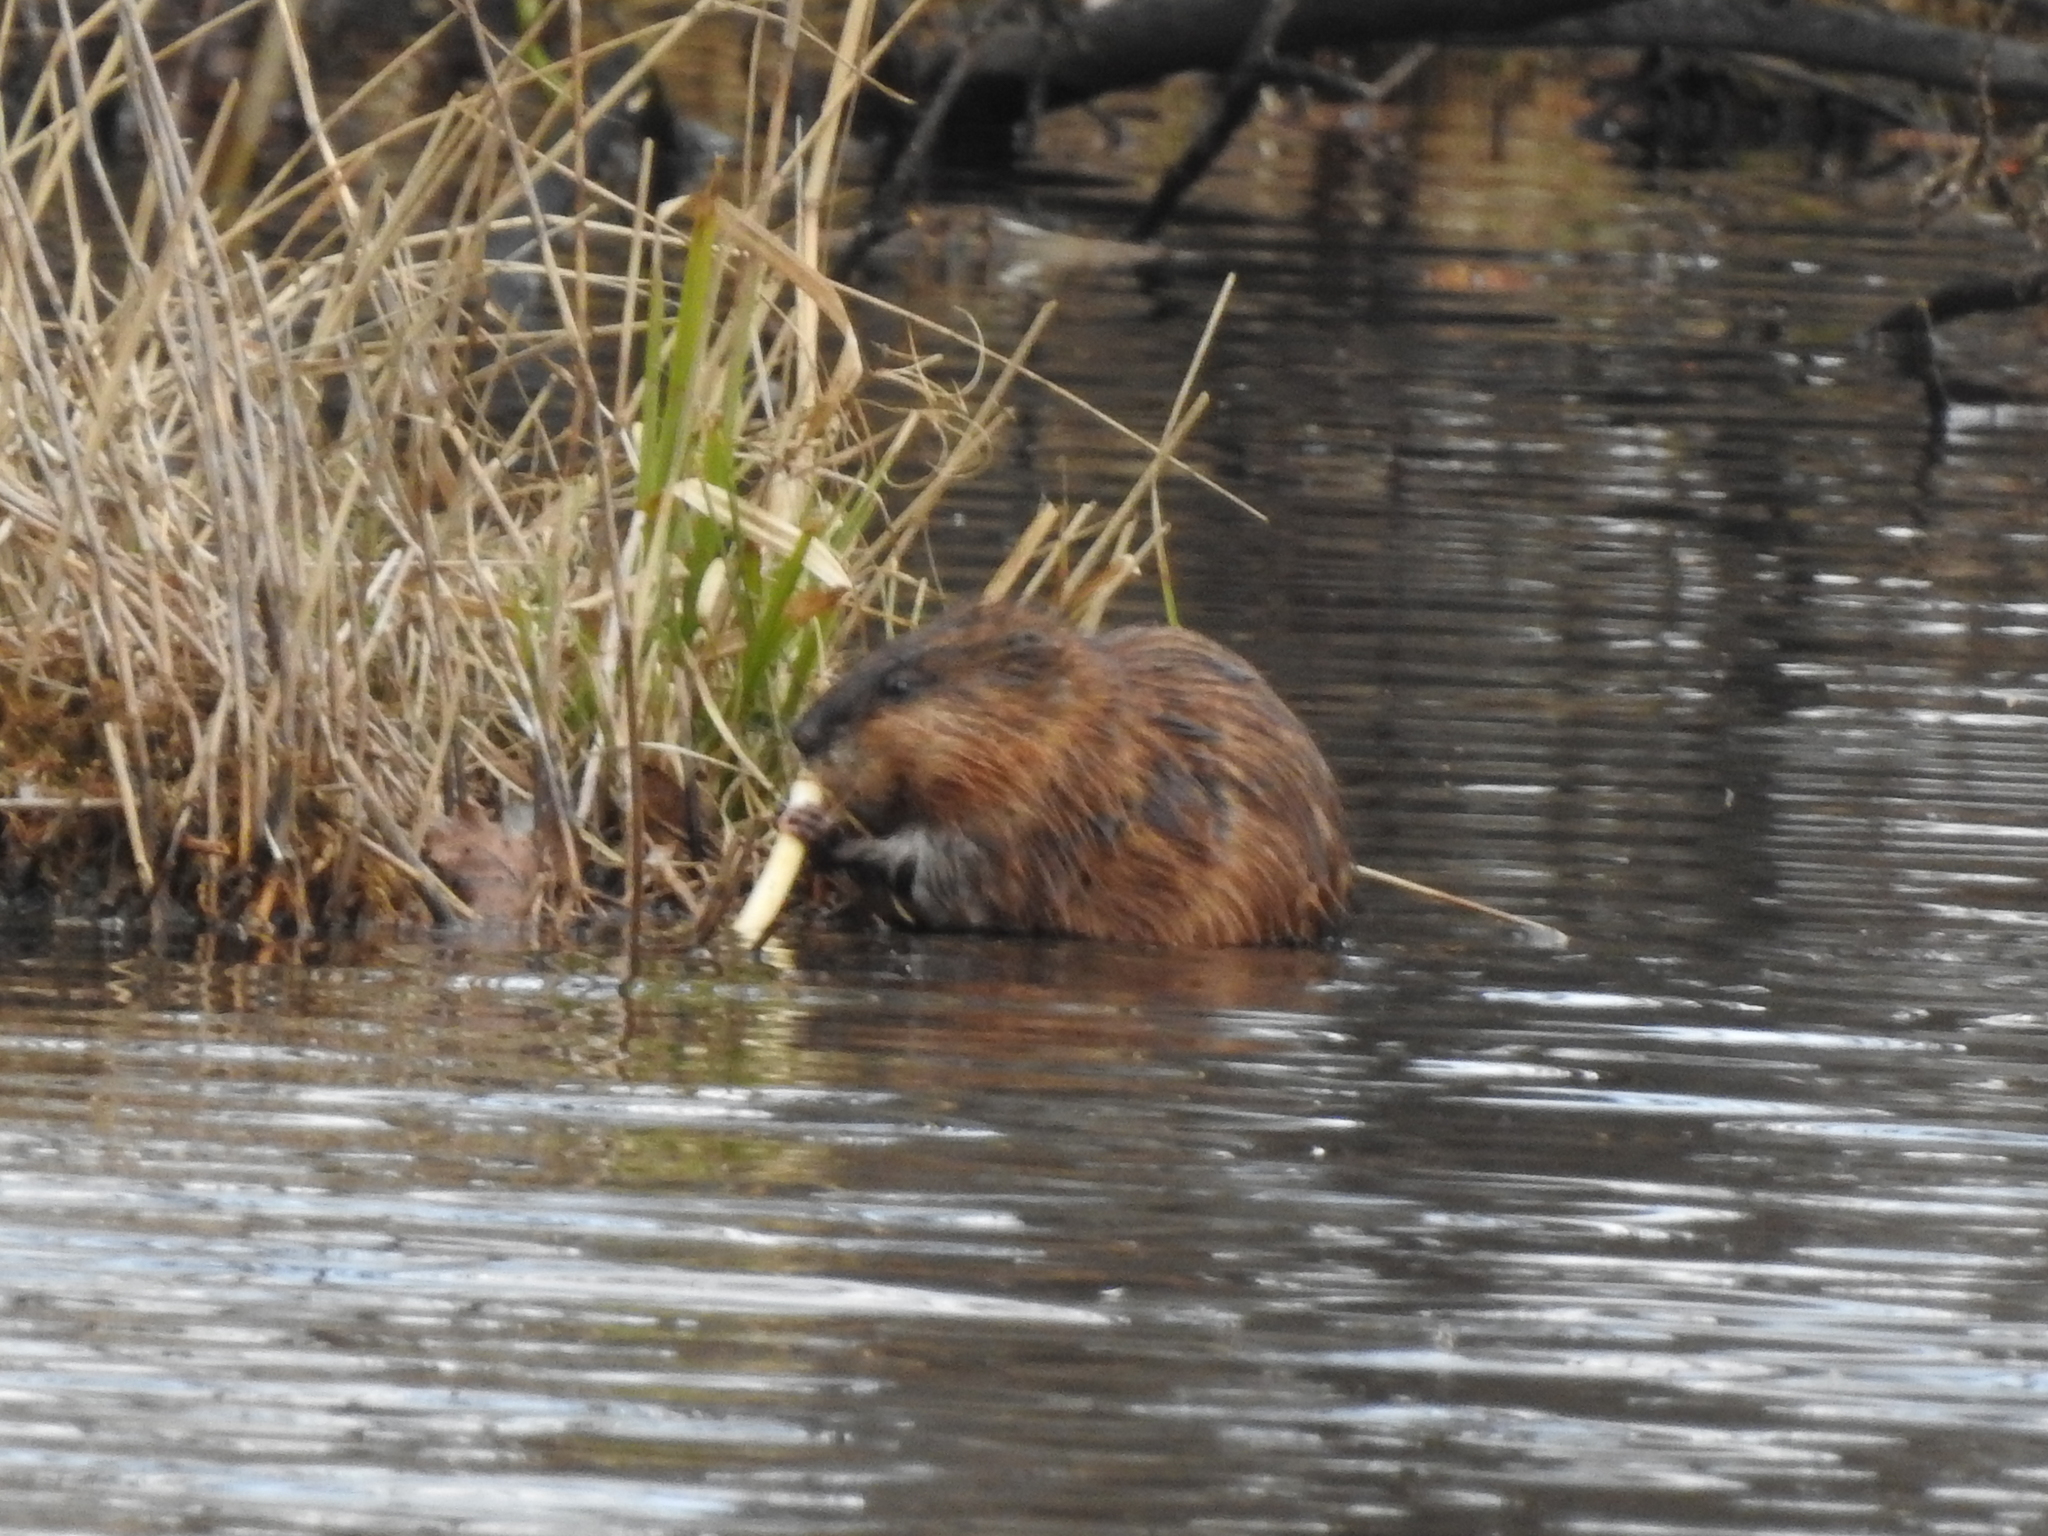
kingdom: Animalia
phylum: Chordata
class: Mammalia
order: Rodentia
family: Cricetidae
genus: Ondatra
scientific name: Ondatra zibethicus
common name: Muskrat
